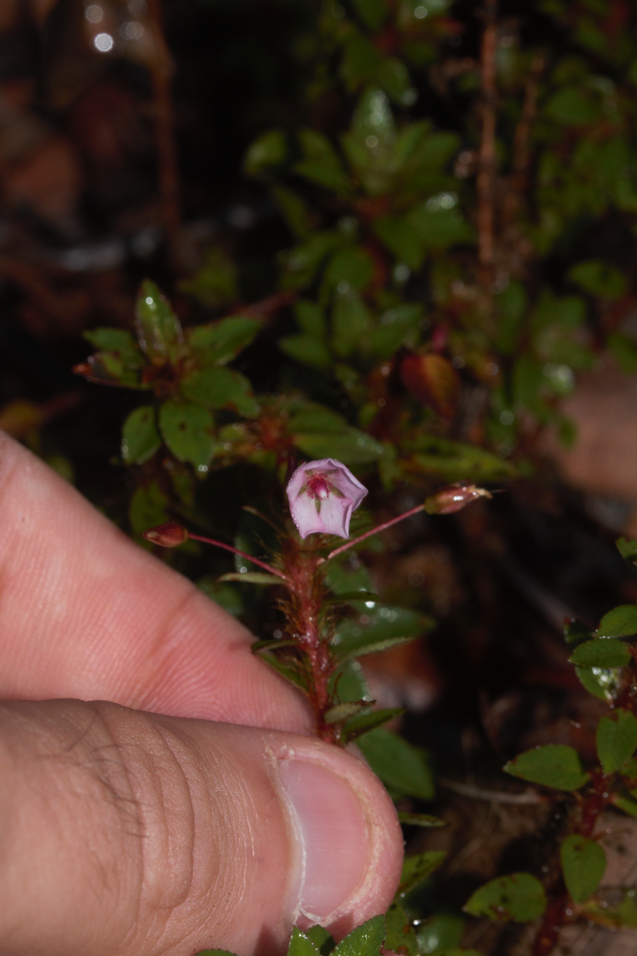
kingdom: Plantae
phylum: Tracheophyta
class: Magnoliopsida
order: Malpighiales
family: Ochnaceae
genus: Sauvagesia
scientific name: Sauvagesia erecta
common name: Creole tea
